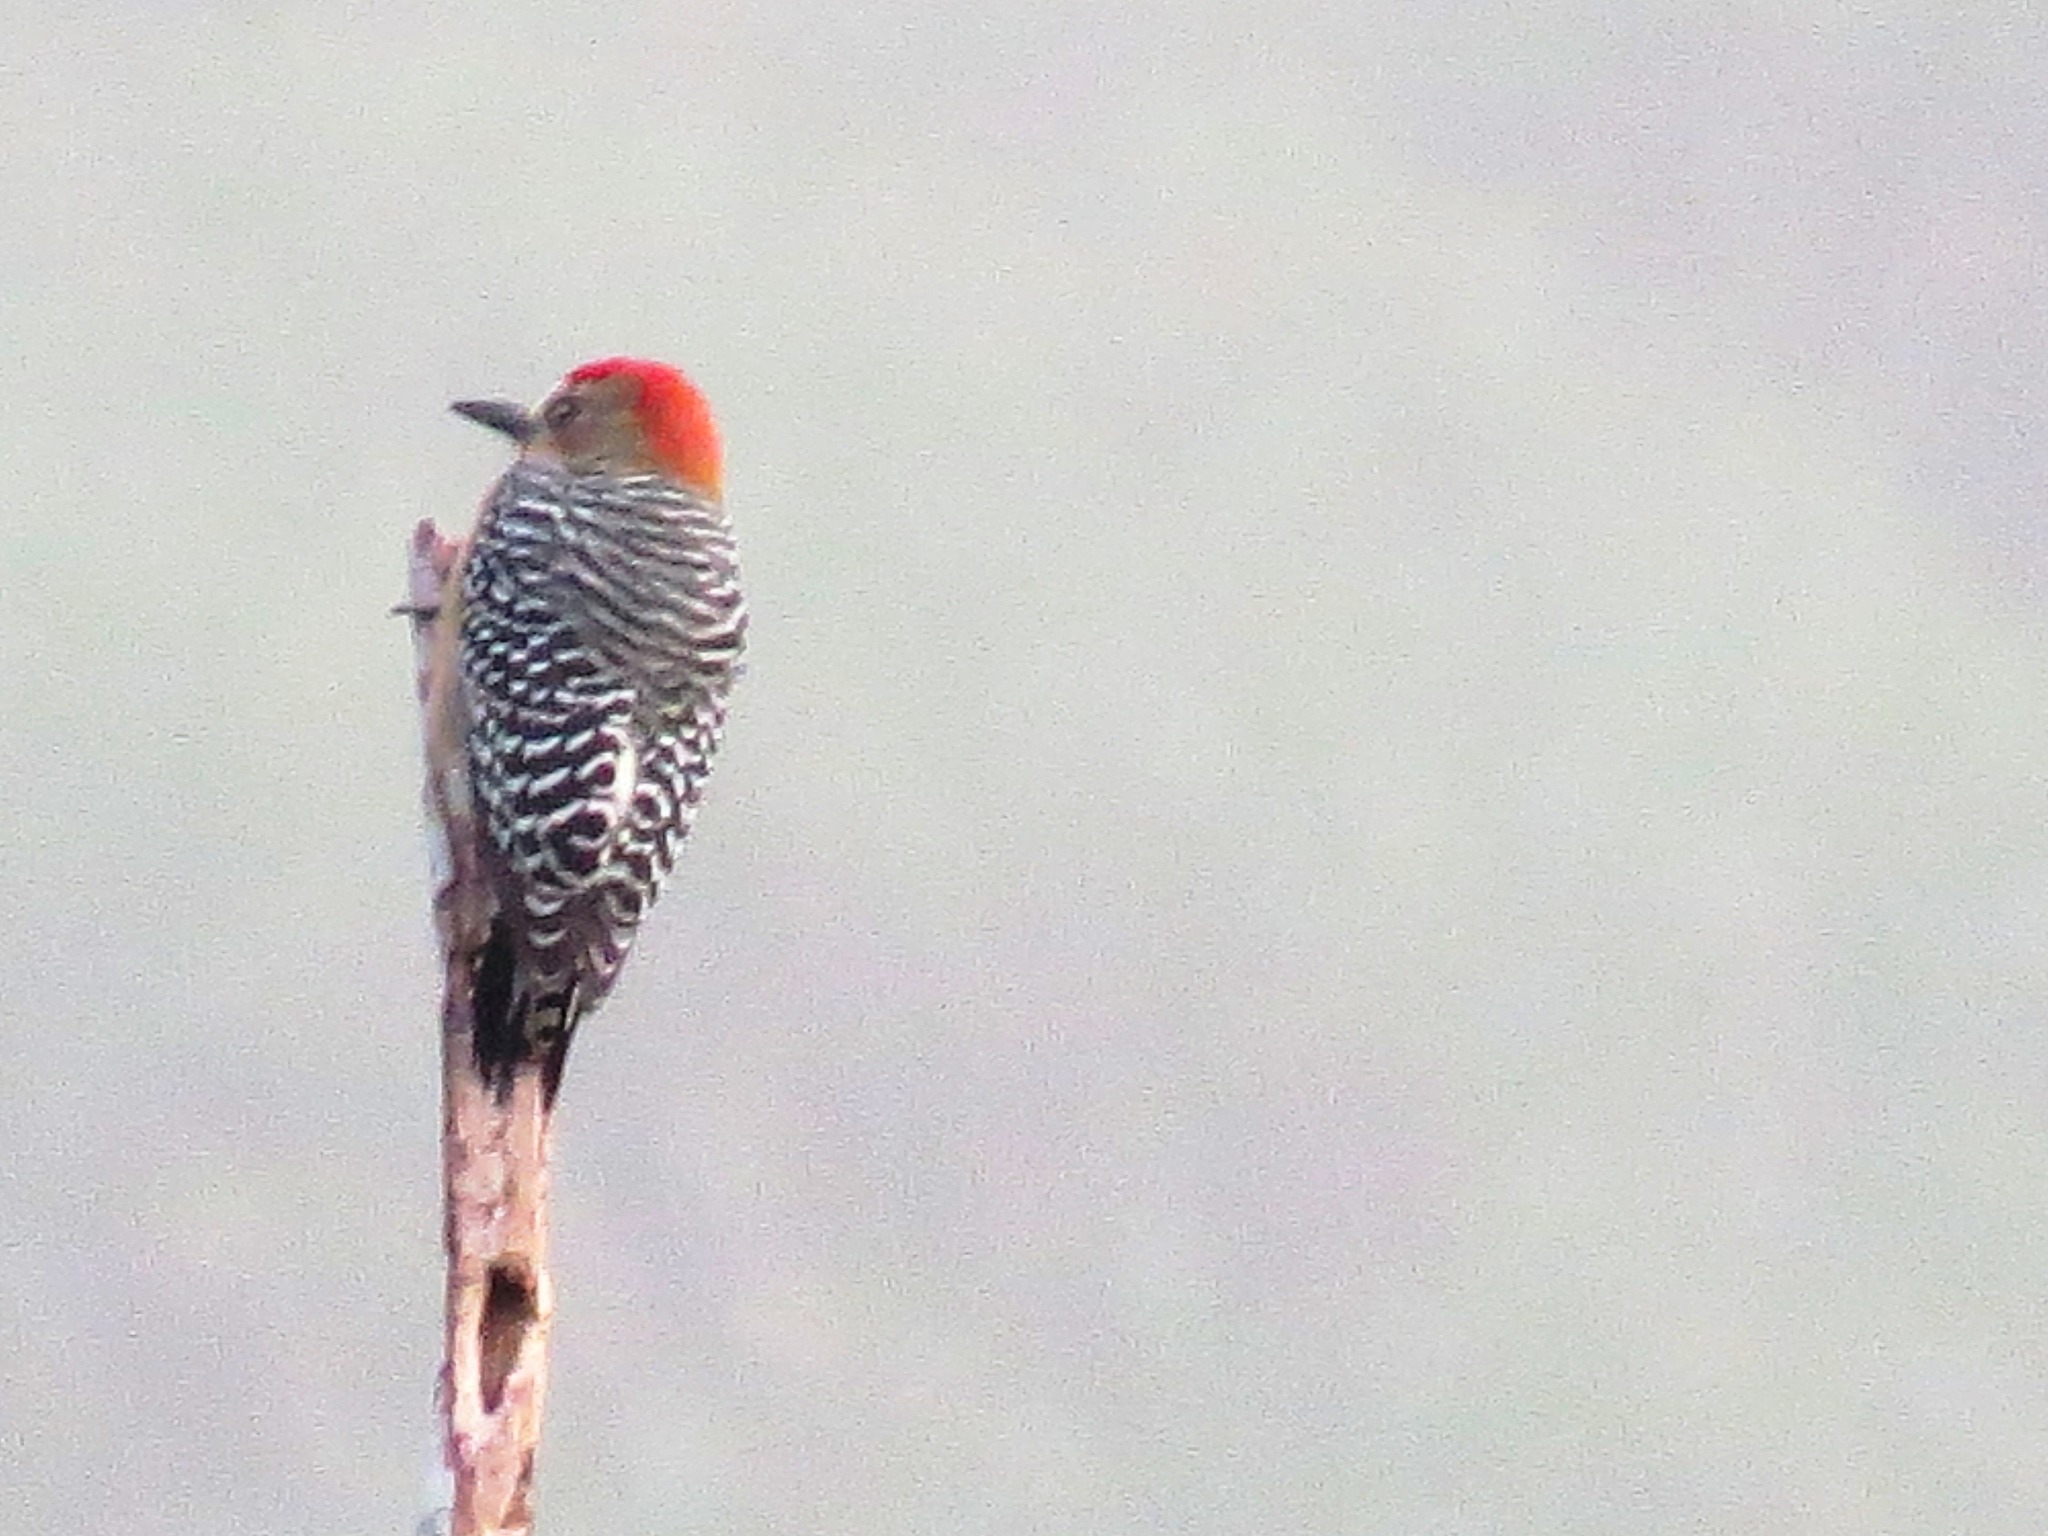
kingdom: Animalia
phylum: Chordata
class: Aves
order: Piciformes
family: Picidae
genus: Melanerpes
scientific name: Melanerpes rubricapillus
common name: Red-crowned woodpecker
